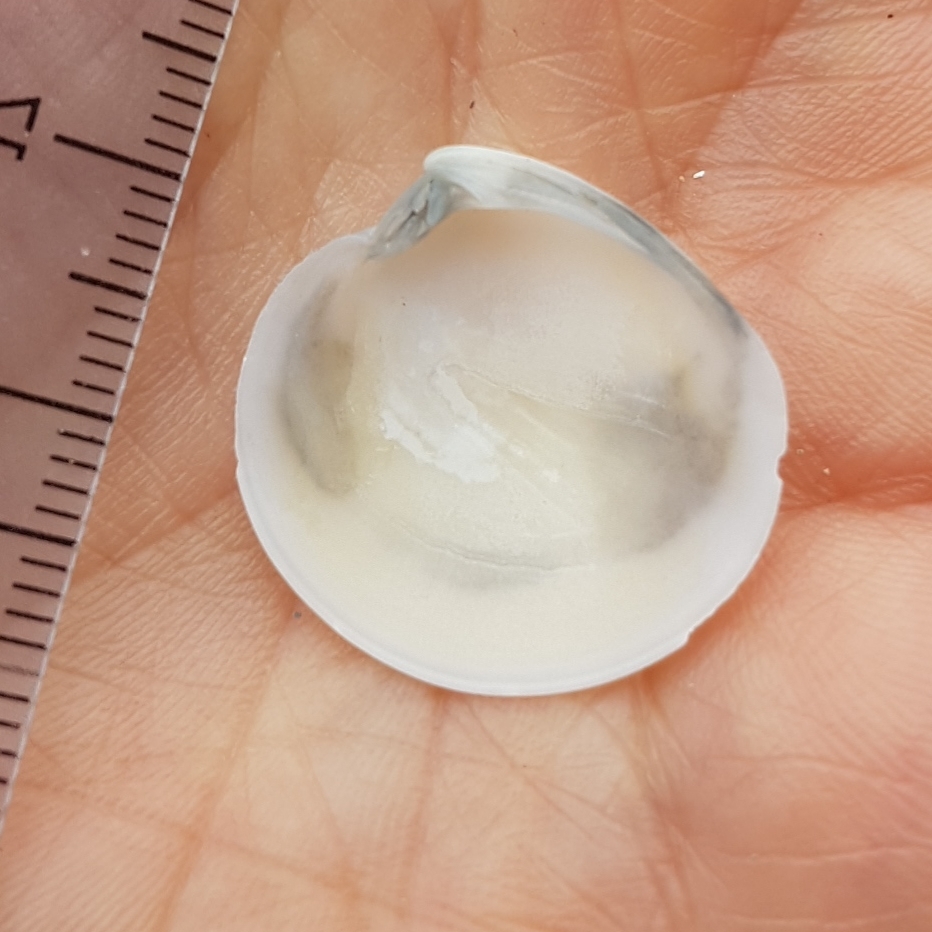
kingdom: Animalia
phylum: Mollusca
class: Bivalvia
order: Venerida
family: Veneridae
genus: Dosinia
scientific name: Dosinia lupinus
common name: Smooth artemis
